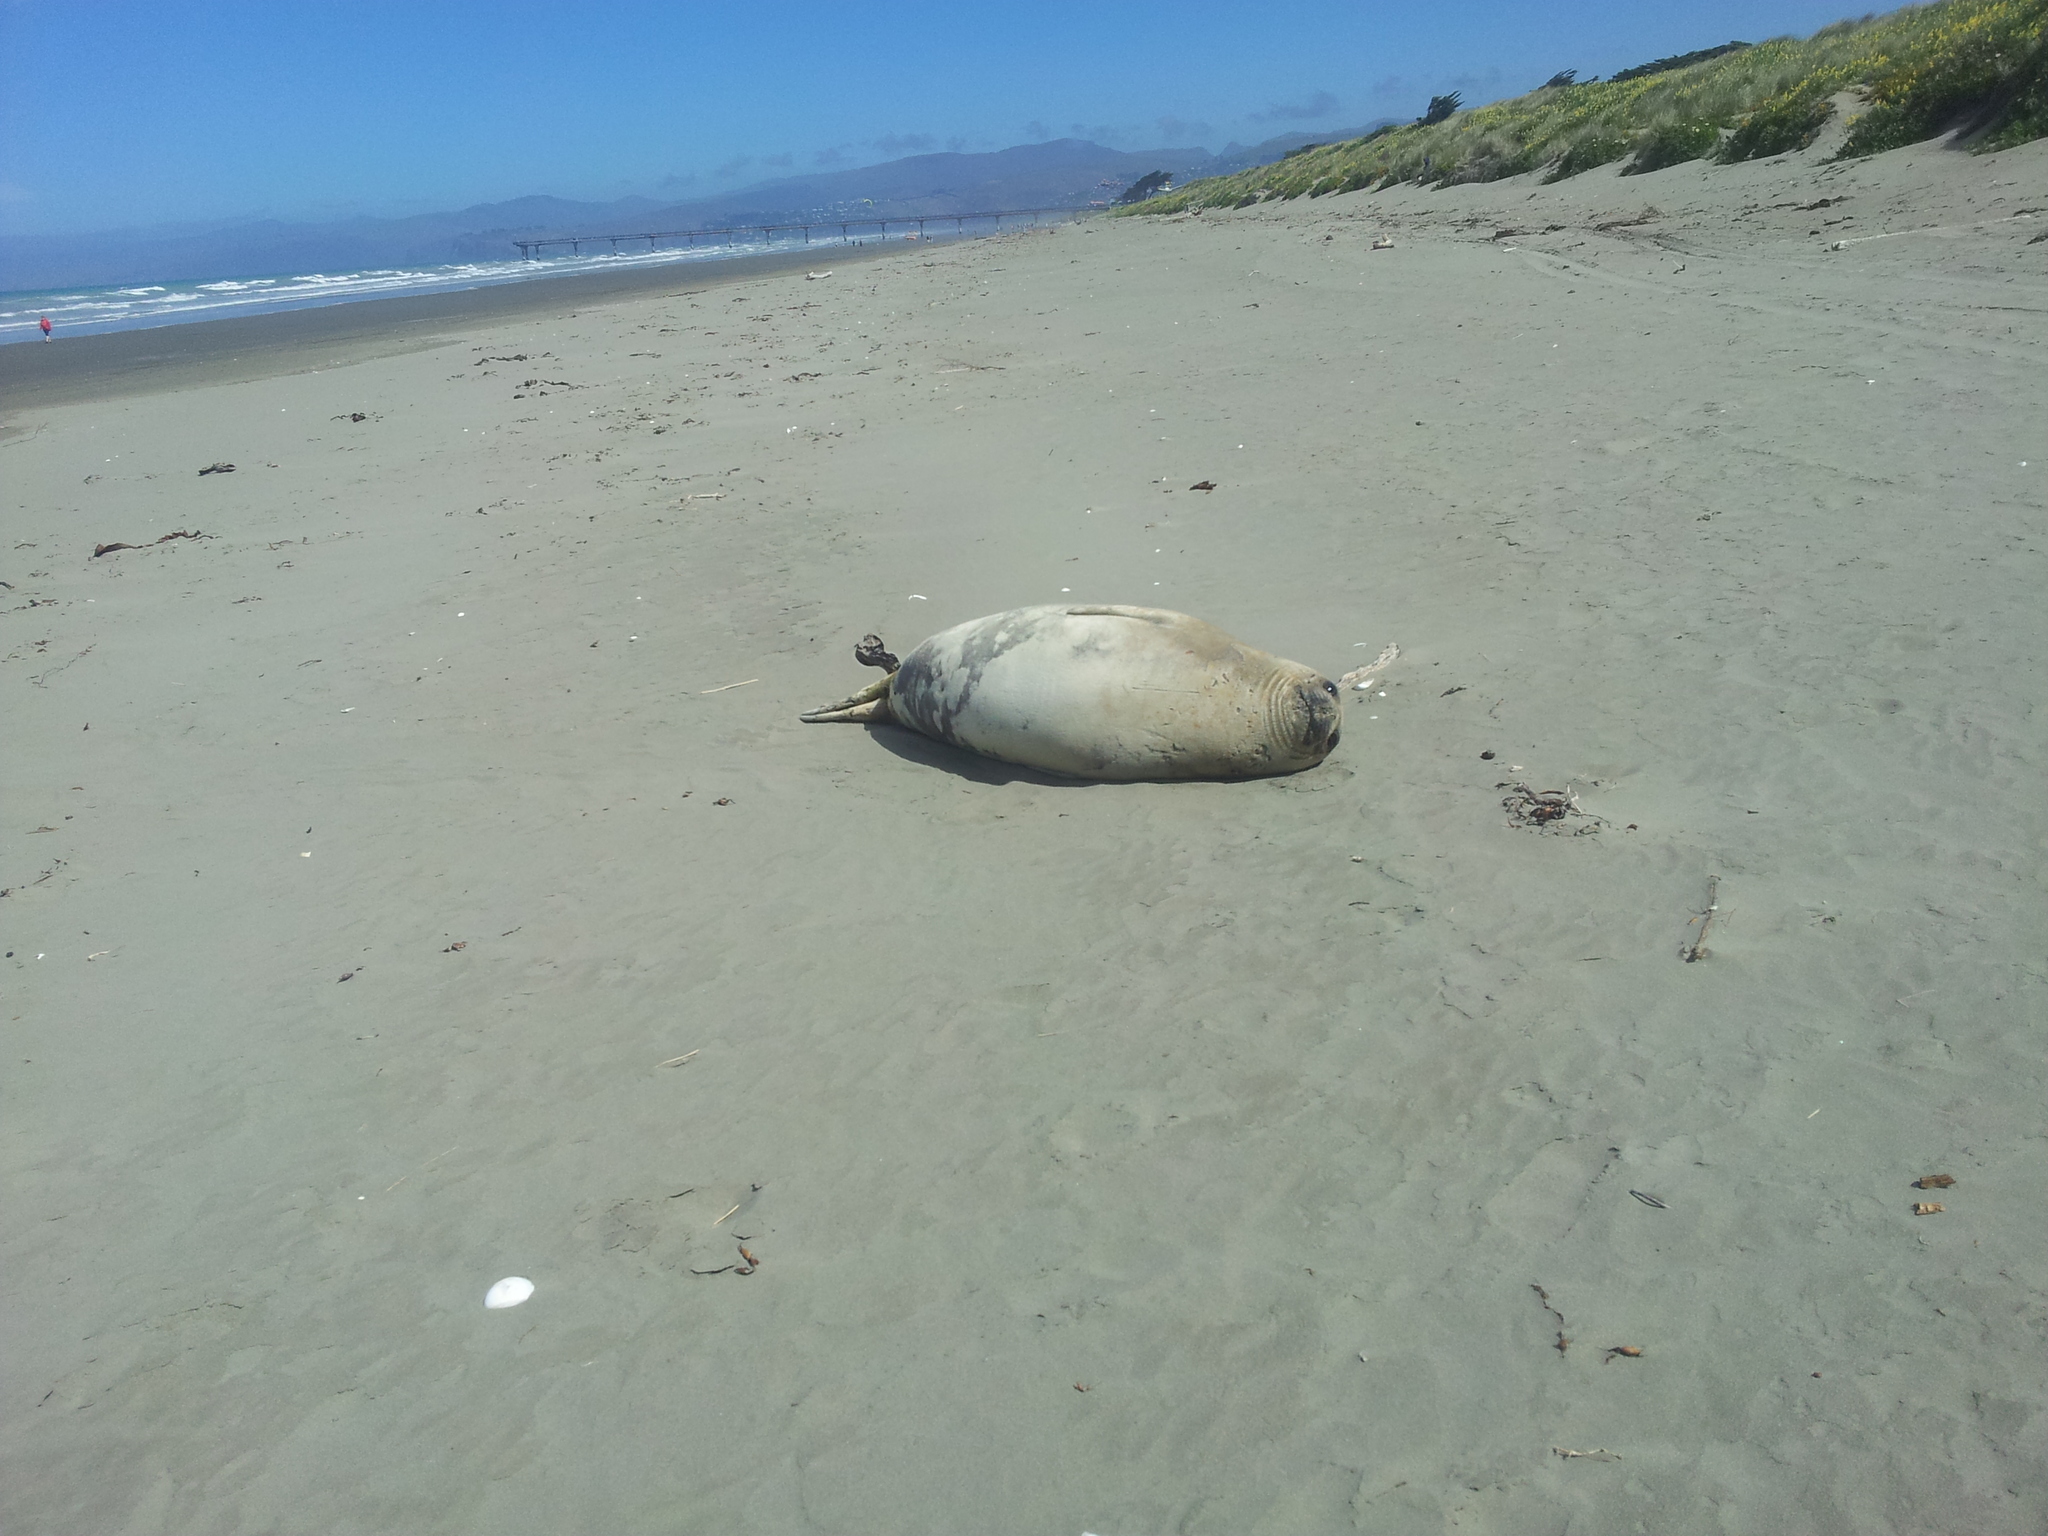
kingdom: Animalia
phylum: Chordata
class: Mammalia
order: Carnivora
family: Phocidae
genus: Mirounga
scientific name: Mirounga leonina
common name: Southern elephant seal
